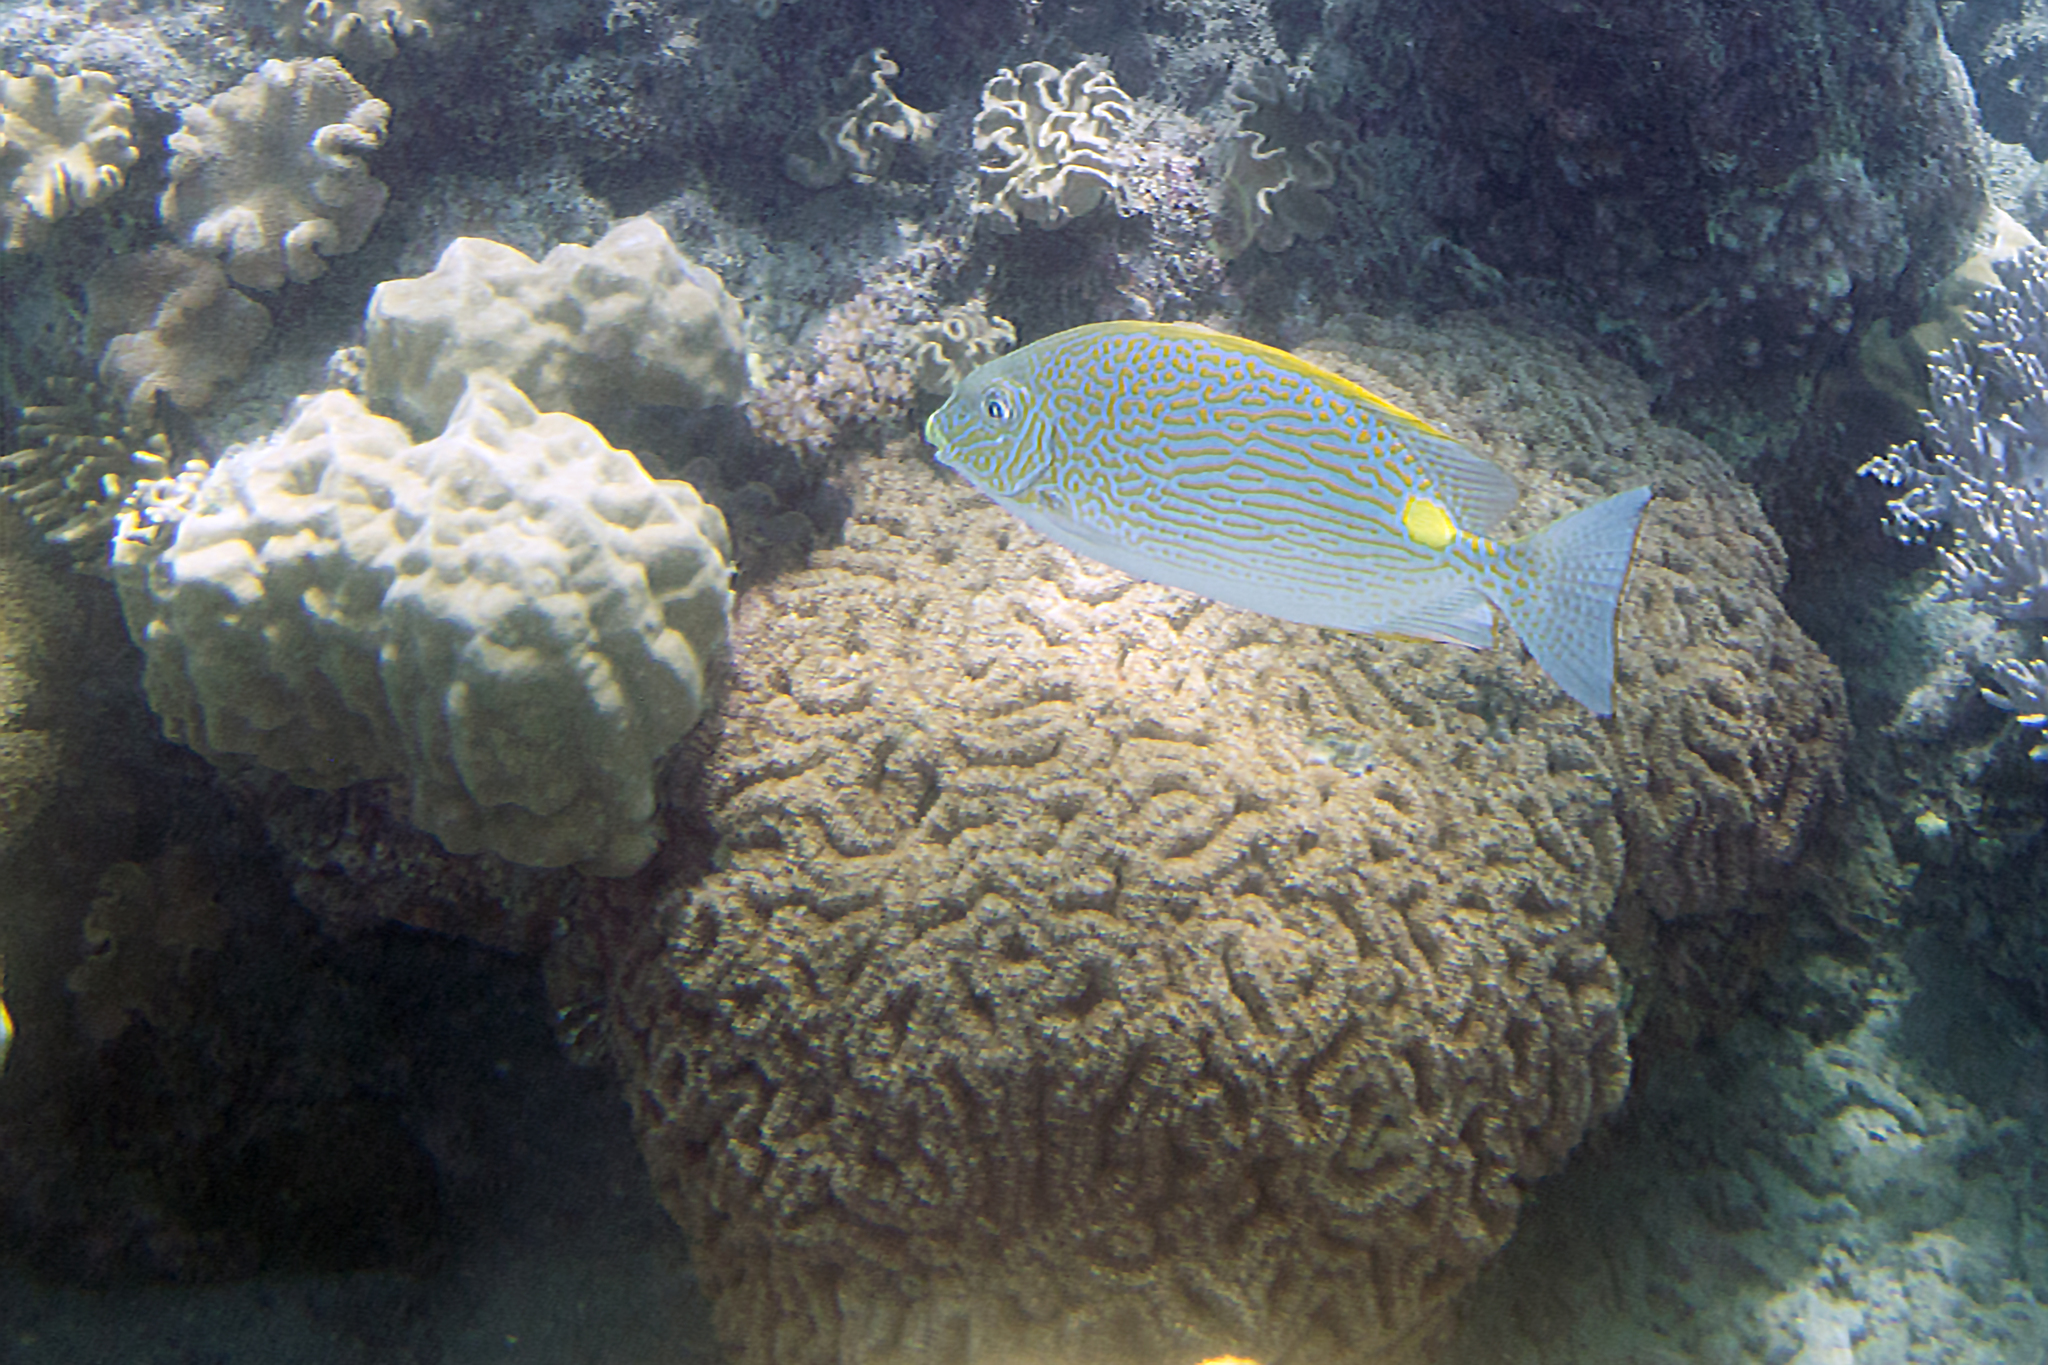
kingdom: Animalia
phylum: Chordata
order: Perciformes
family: Siganidae
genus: Siganus
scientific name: Siganus lineatus
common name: Lined rabbitfish
